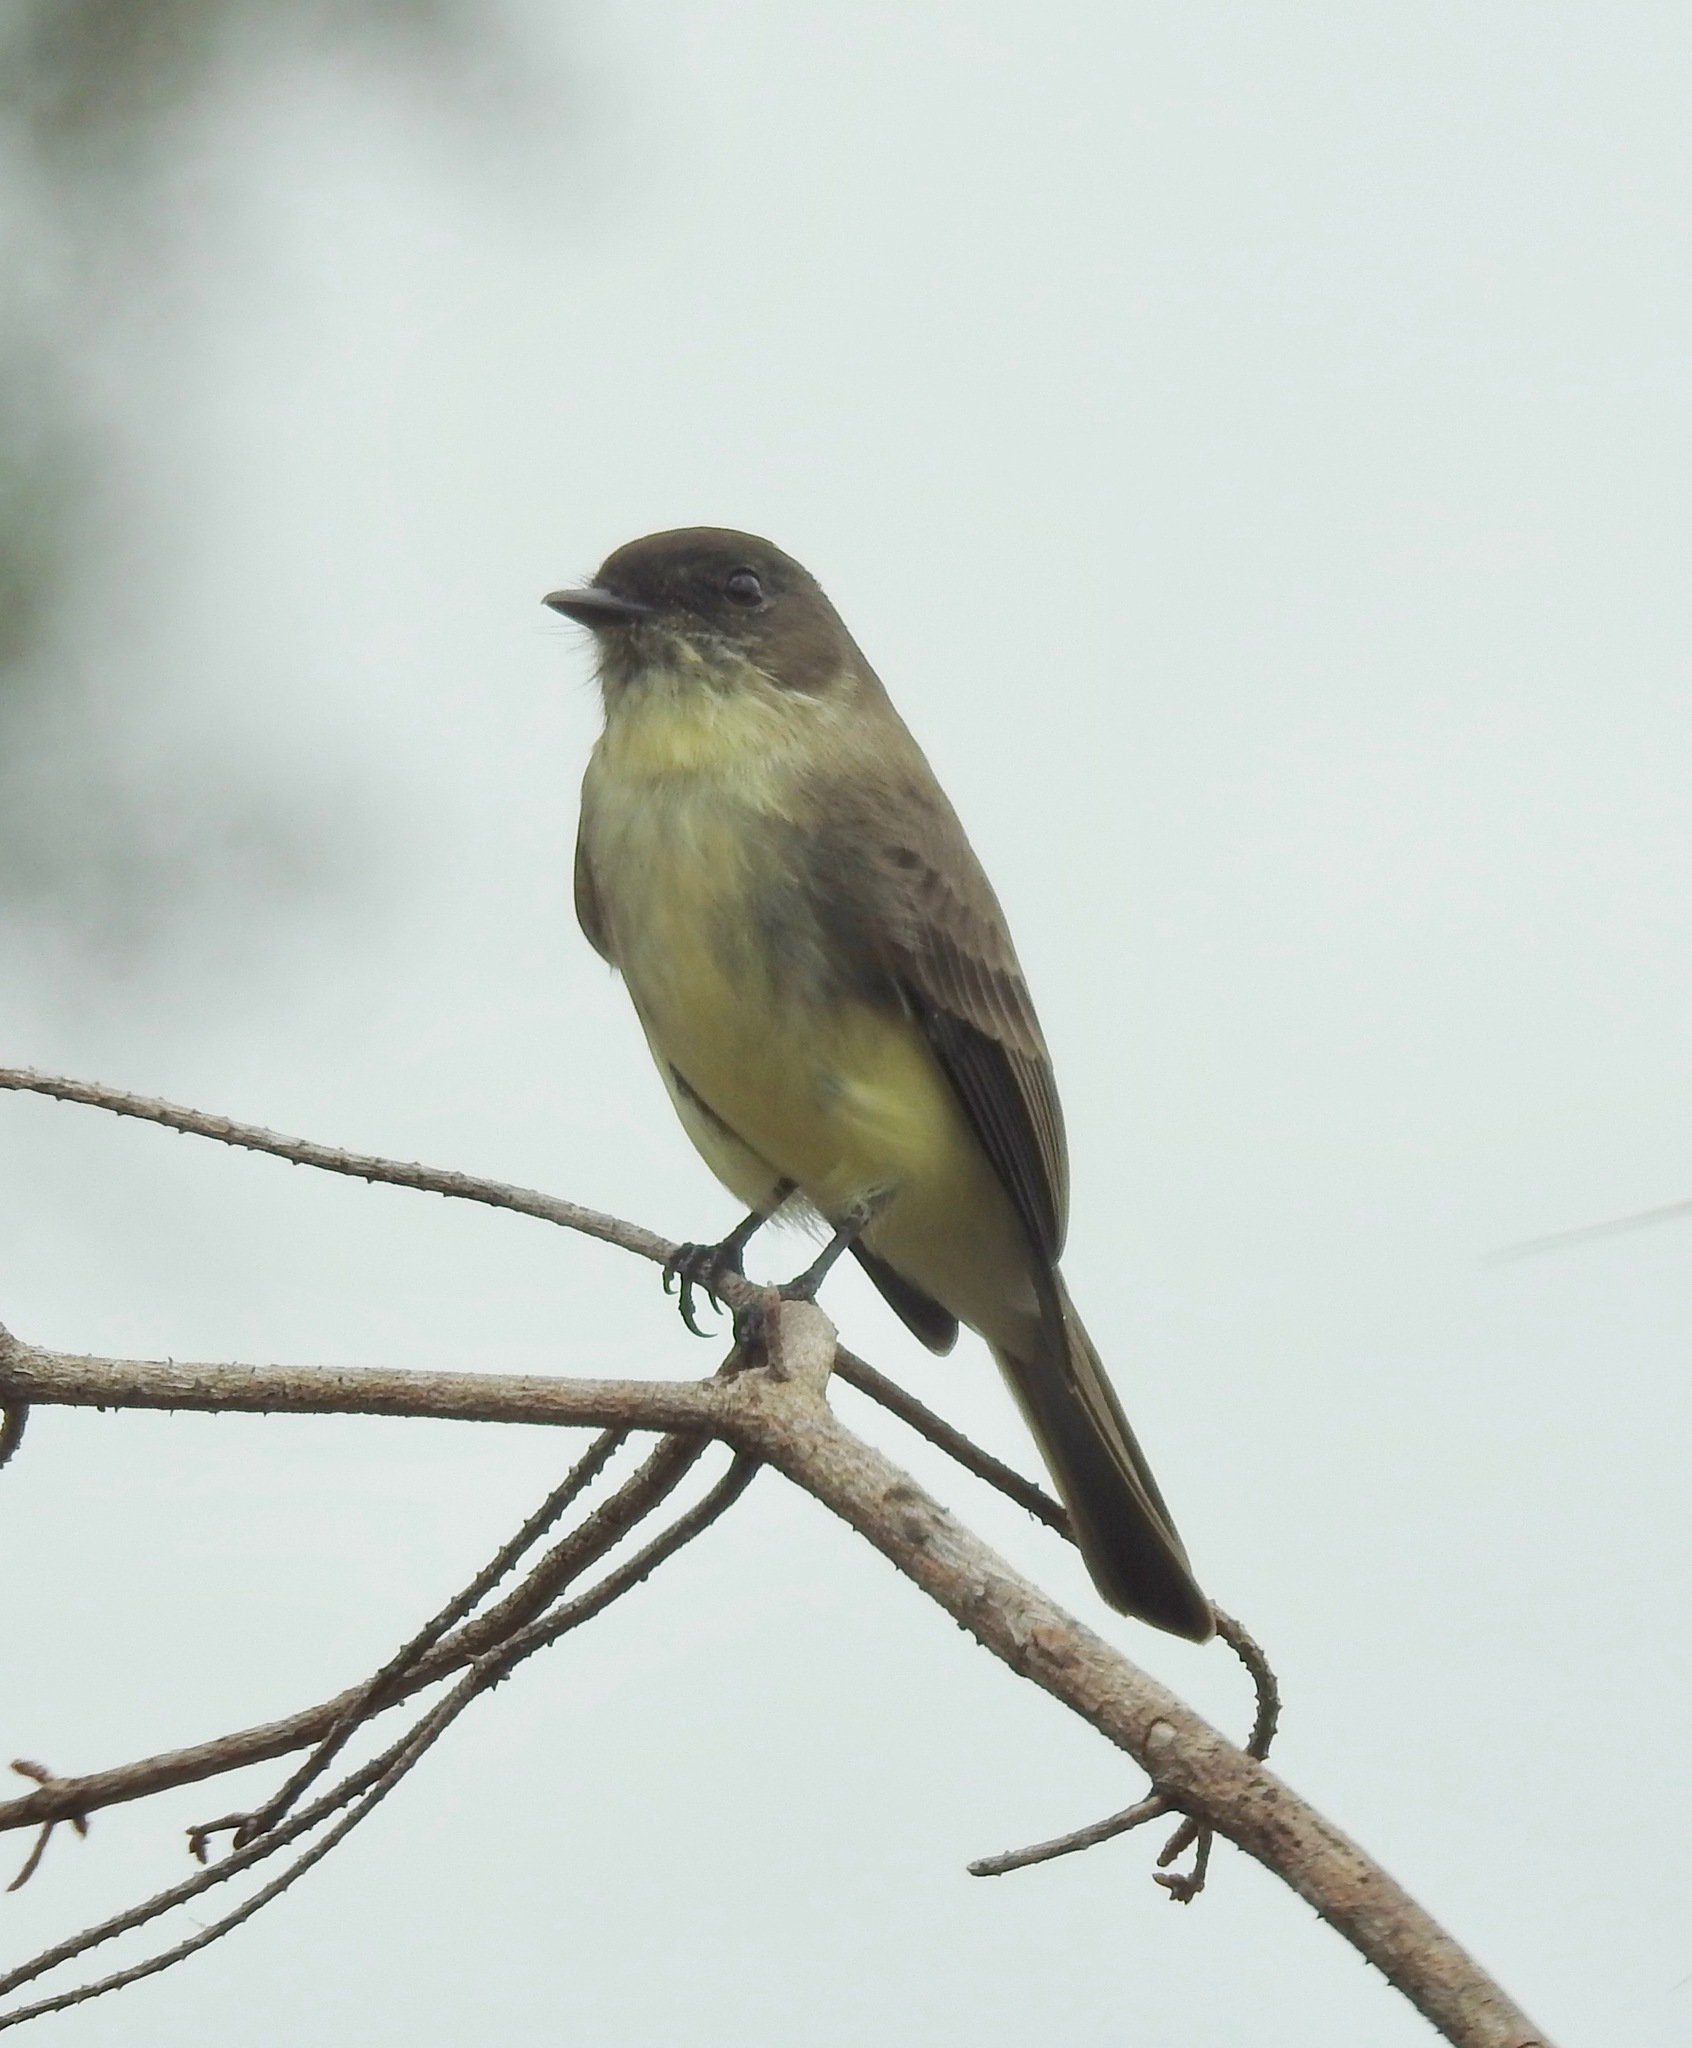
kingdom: Animalia
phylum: Chordata
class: Aves
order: Passeriformes
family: Tyrannidae
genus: Sayornis
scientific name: Sayornis phoebe
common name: Eastern phoebe
